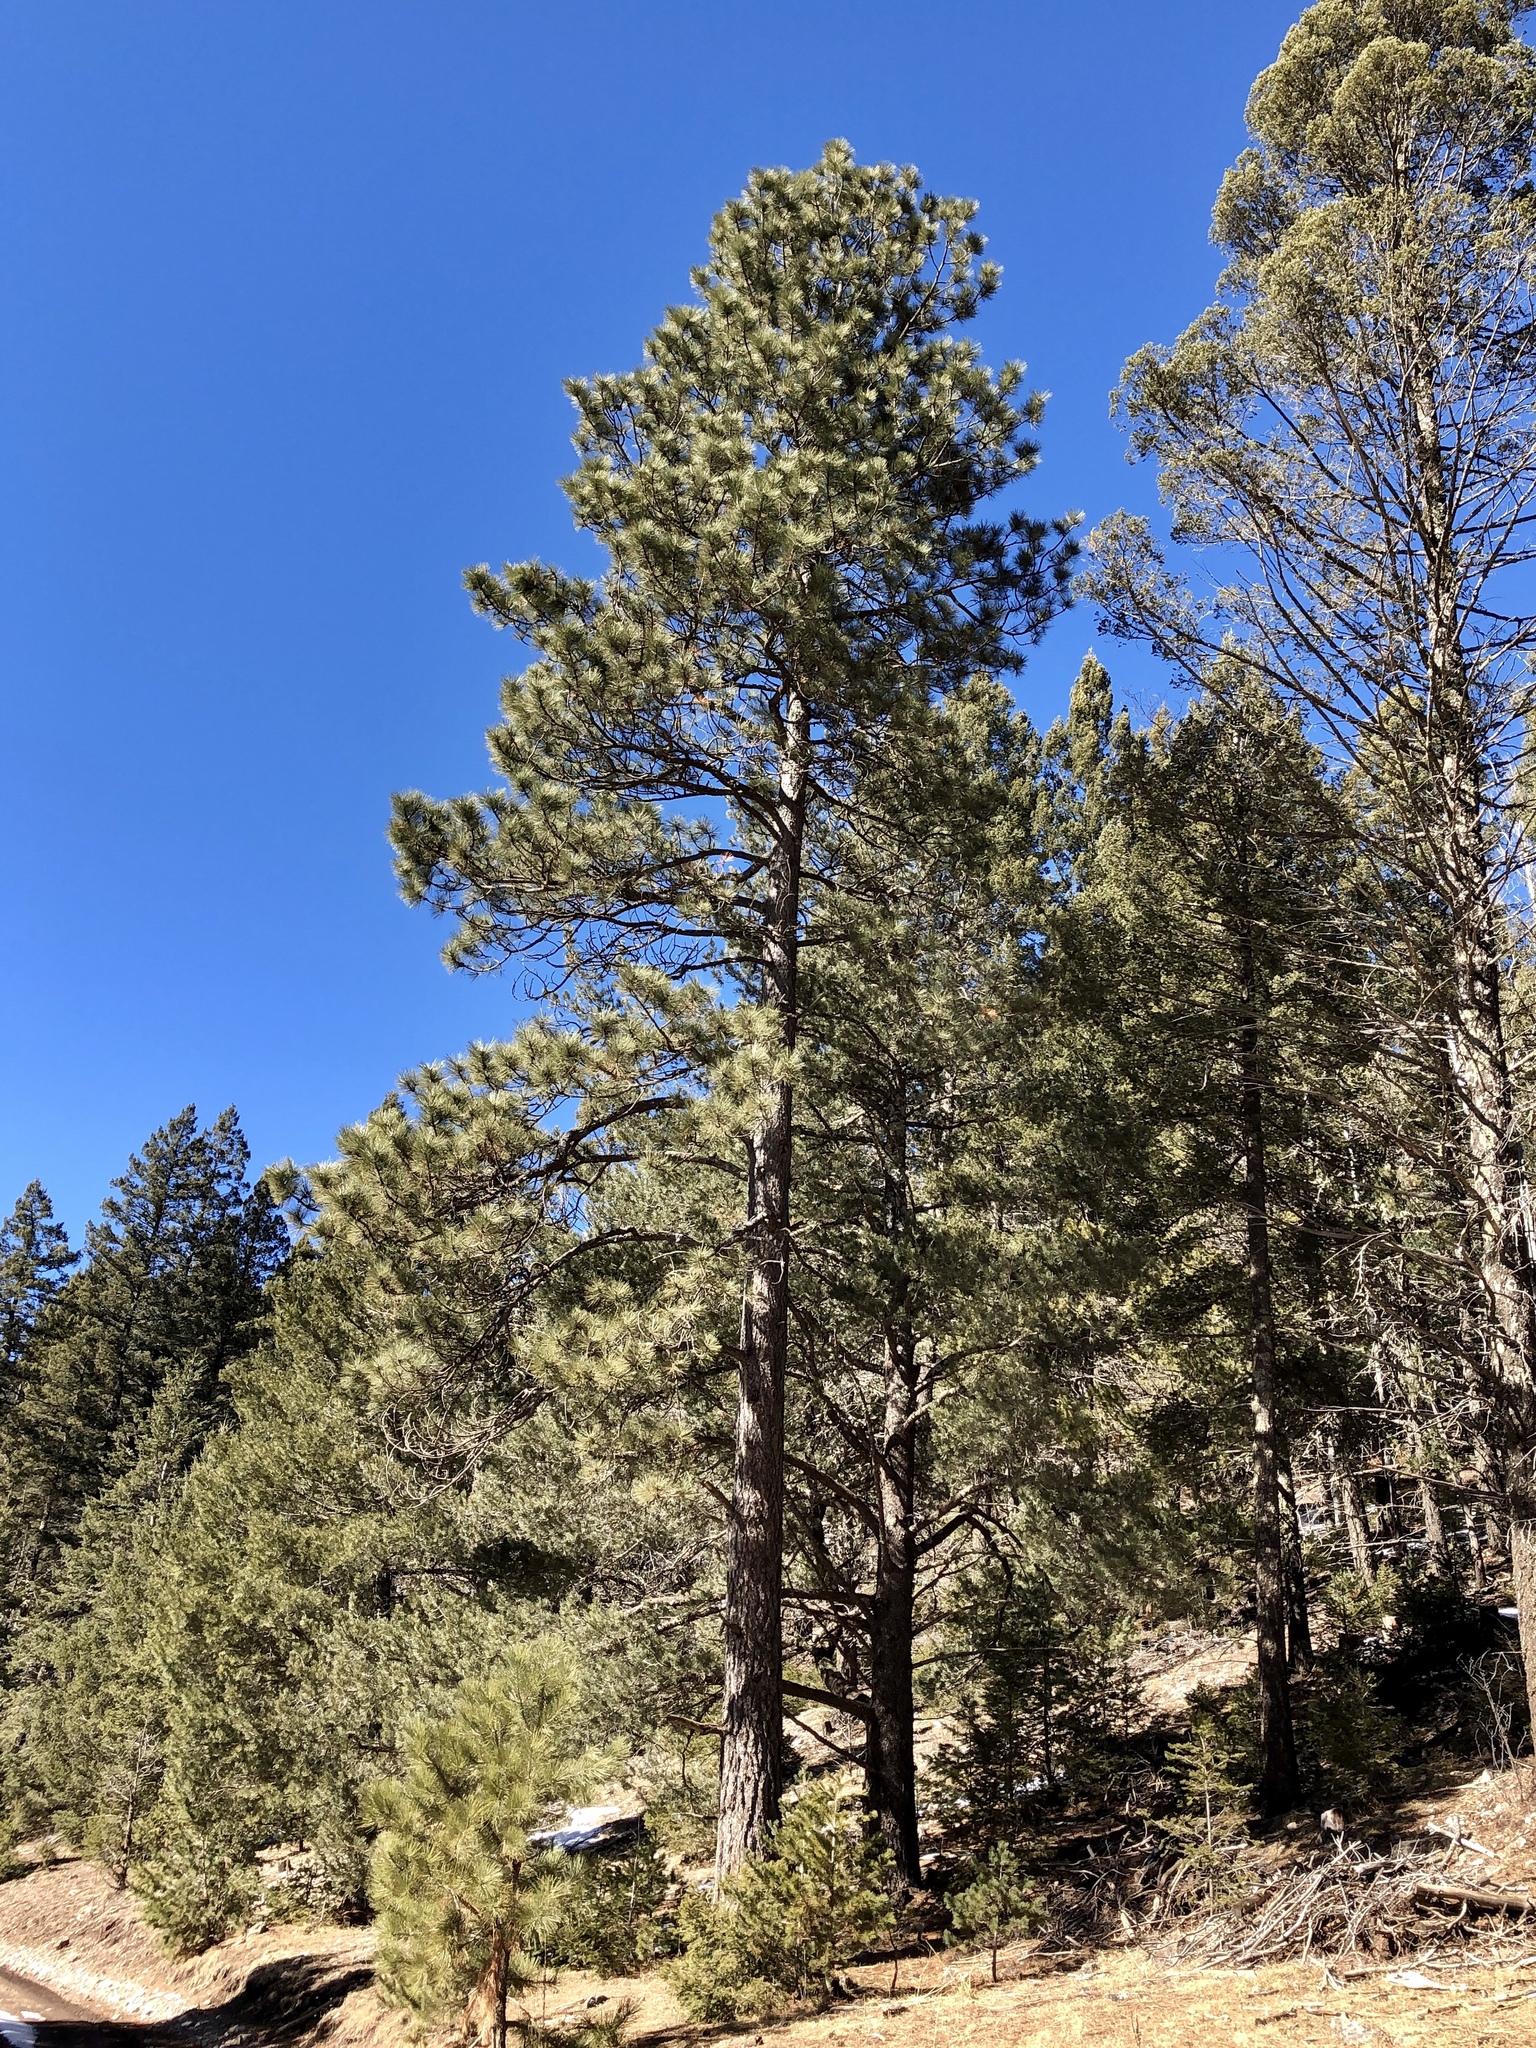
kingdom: Plantae
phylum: Tracheophyta
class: Pinopsida
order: Pinales
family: Pinaceae
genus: Pinus
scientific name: Pinus ponderosa
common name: Western yellow-pine
